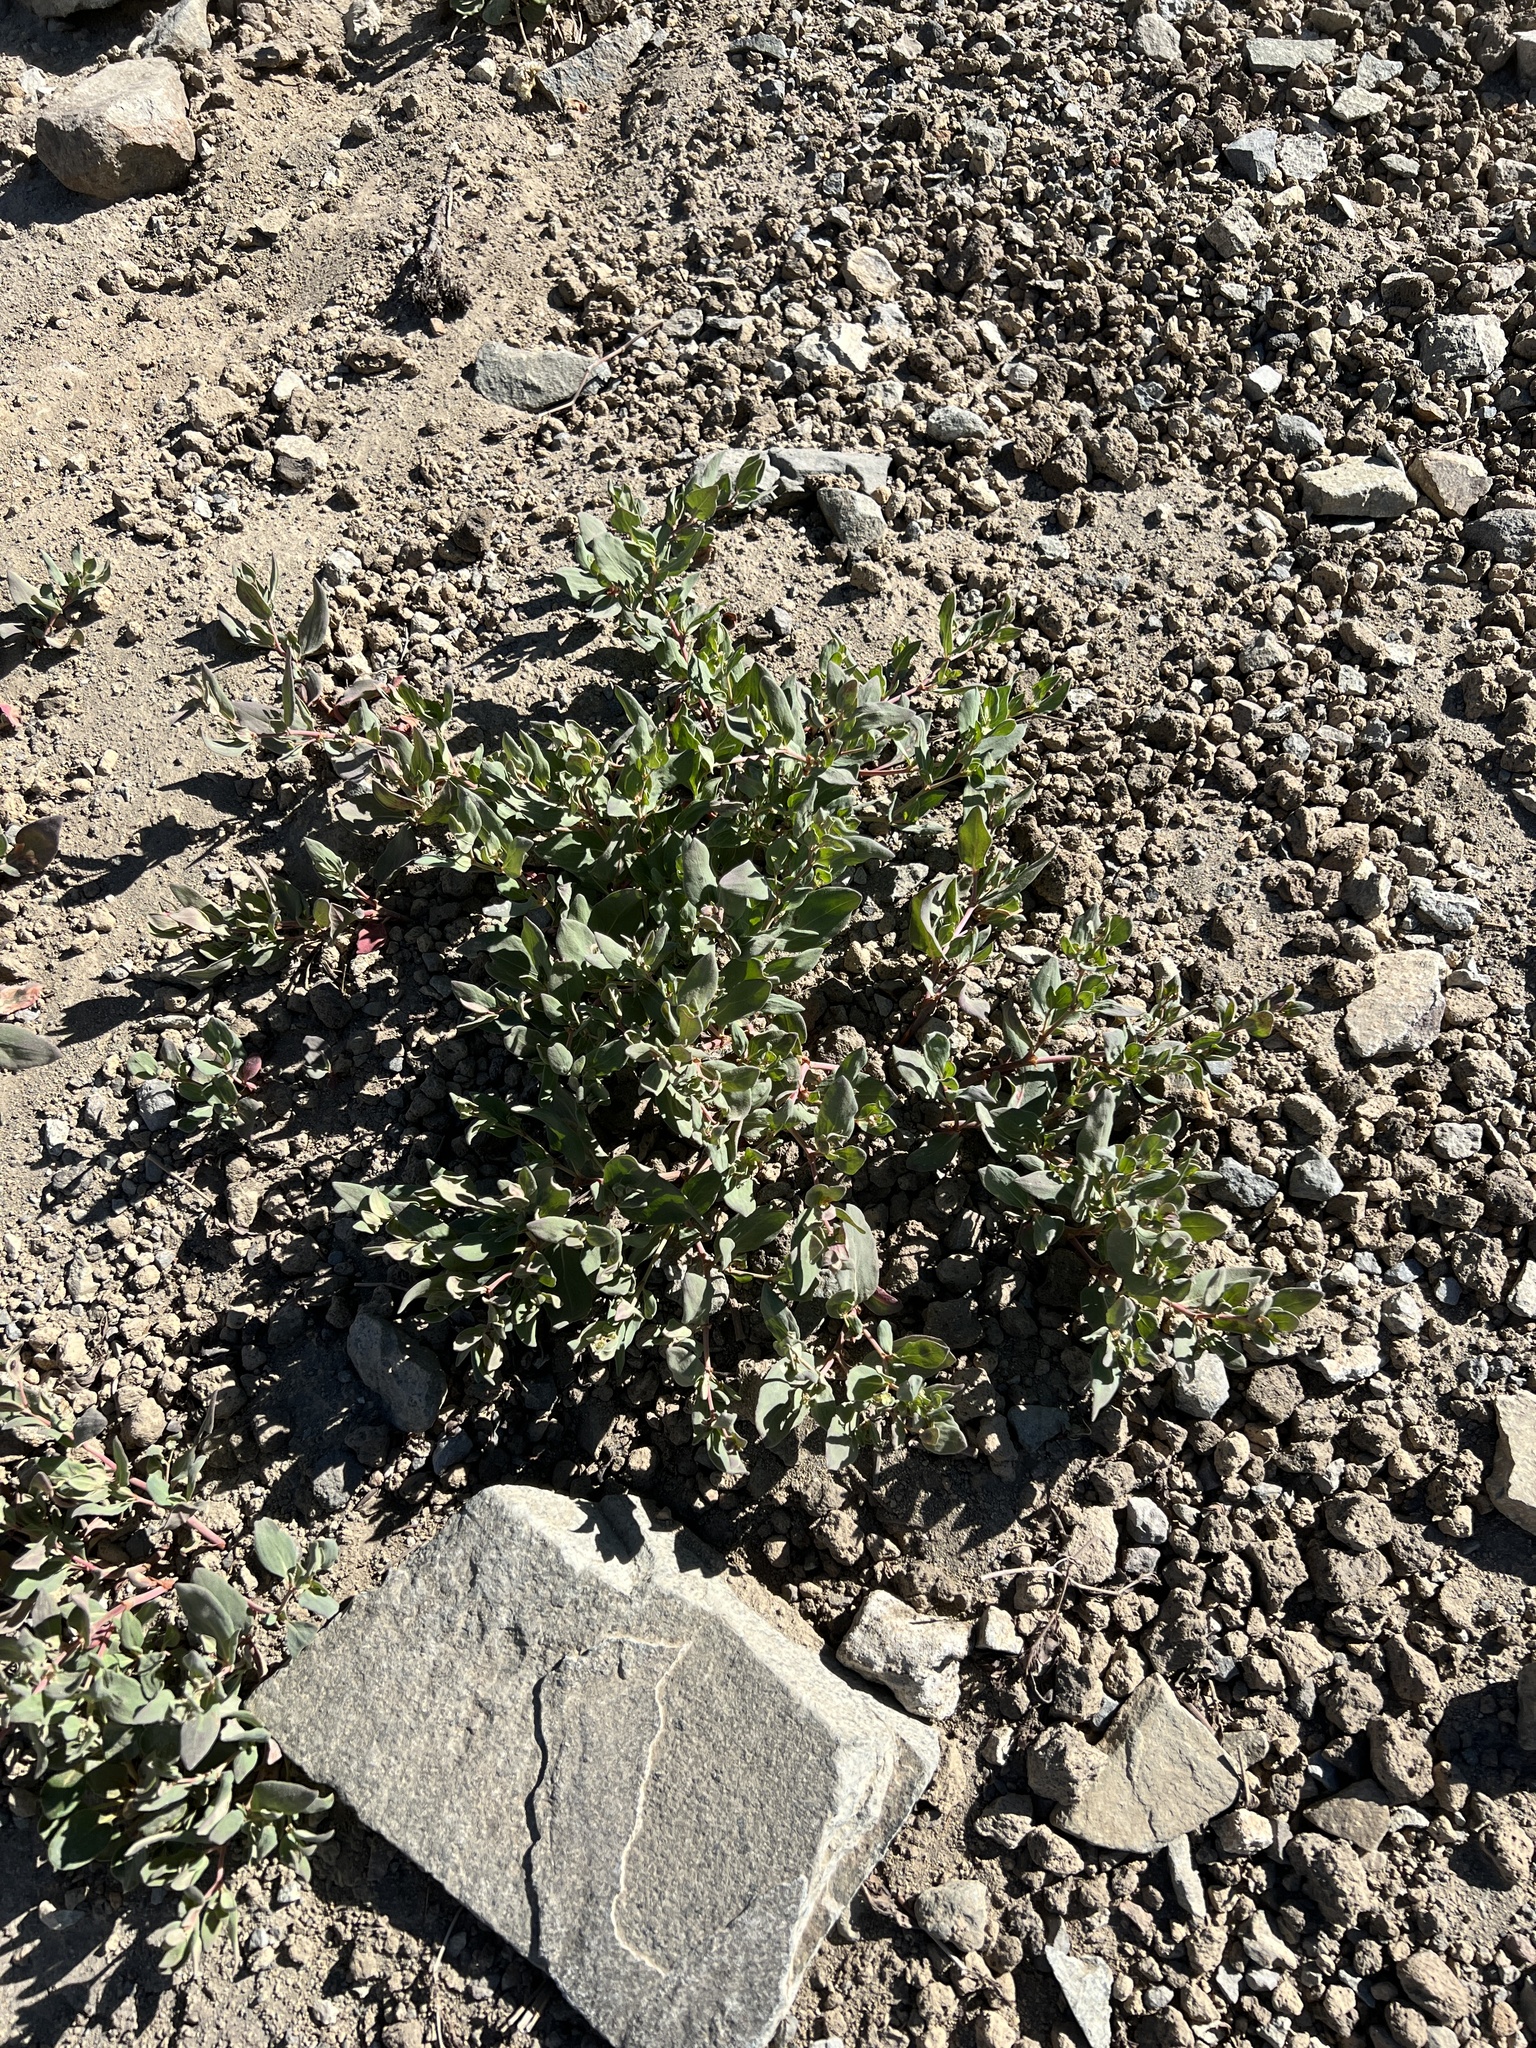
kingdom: Plantae
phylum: Tracheophyta
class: Magnoliopsida
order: Caryophyllales
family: Polygonaceae
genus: Koenigia
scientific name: Koenigia davisiae
